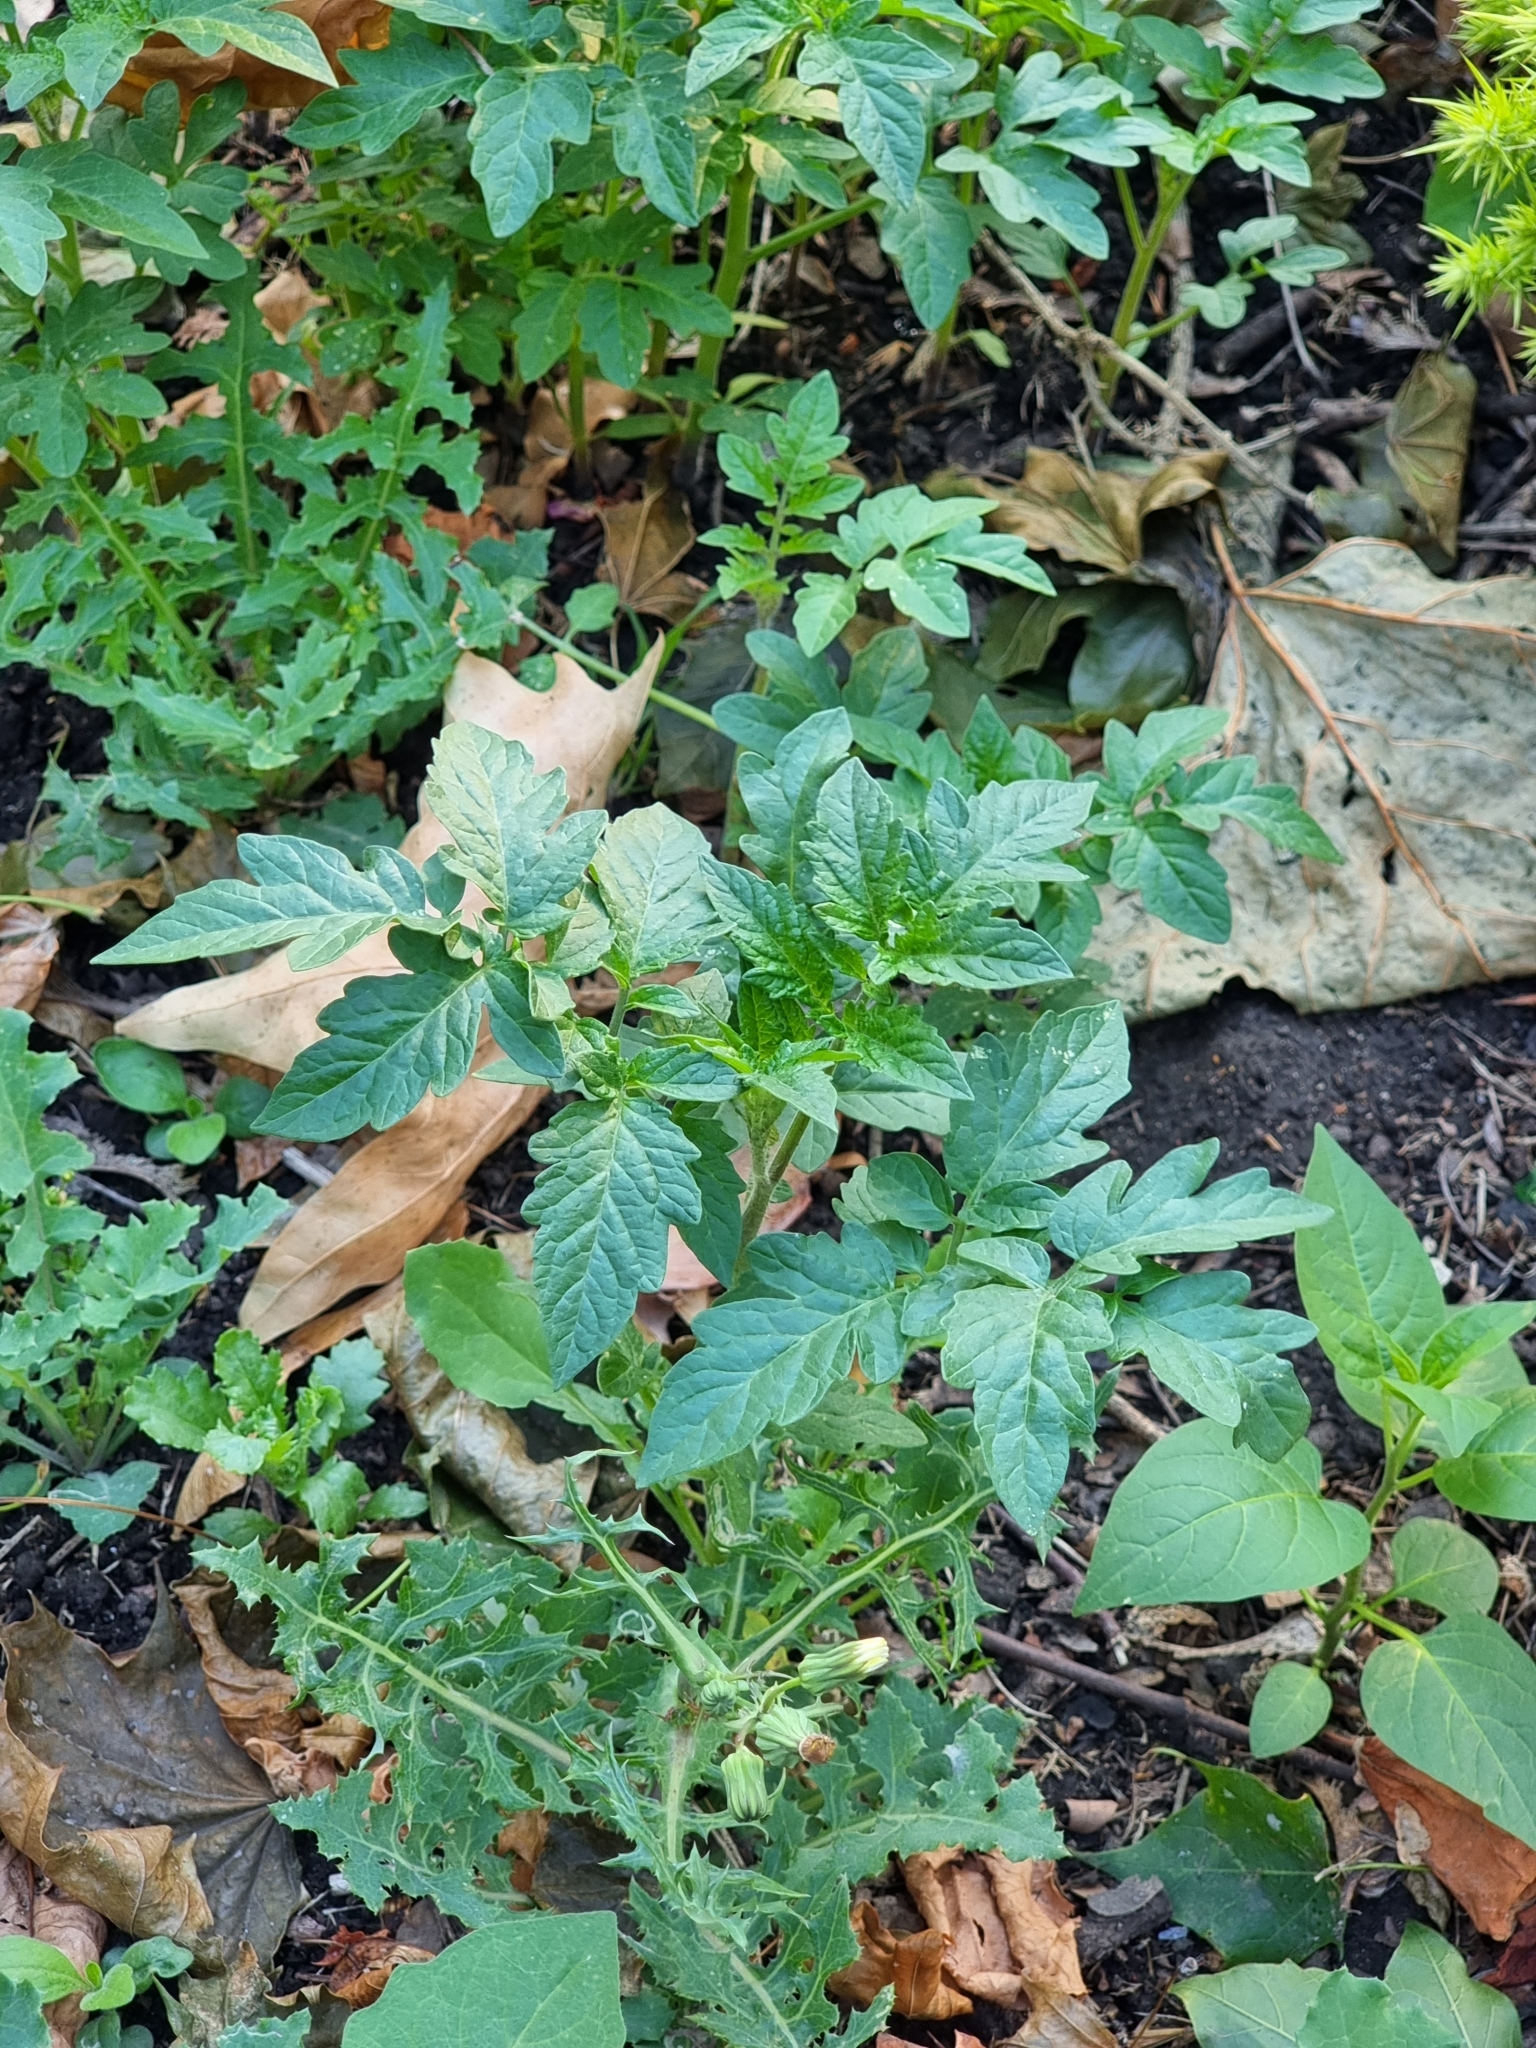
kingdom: Plantae
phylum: Tracheophyta
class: Magnoliopsida
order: Solanales
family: Solanaceae
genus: Solanum
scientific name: Solanum lycopersicum
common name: Garden tomato
